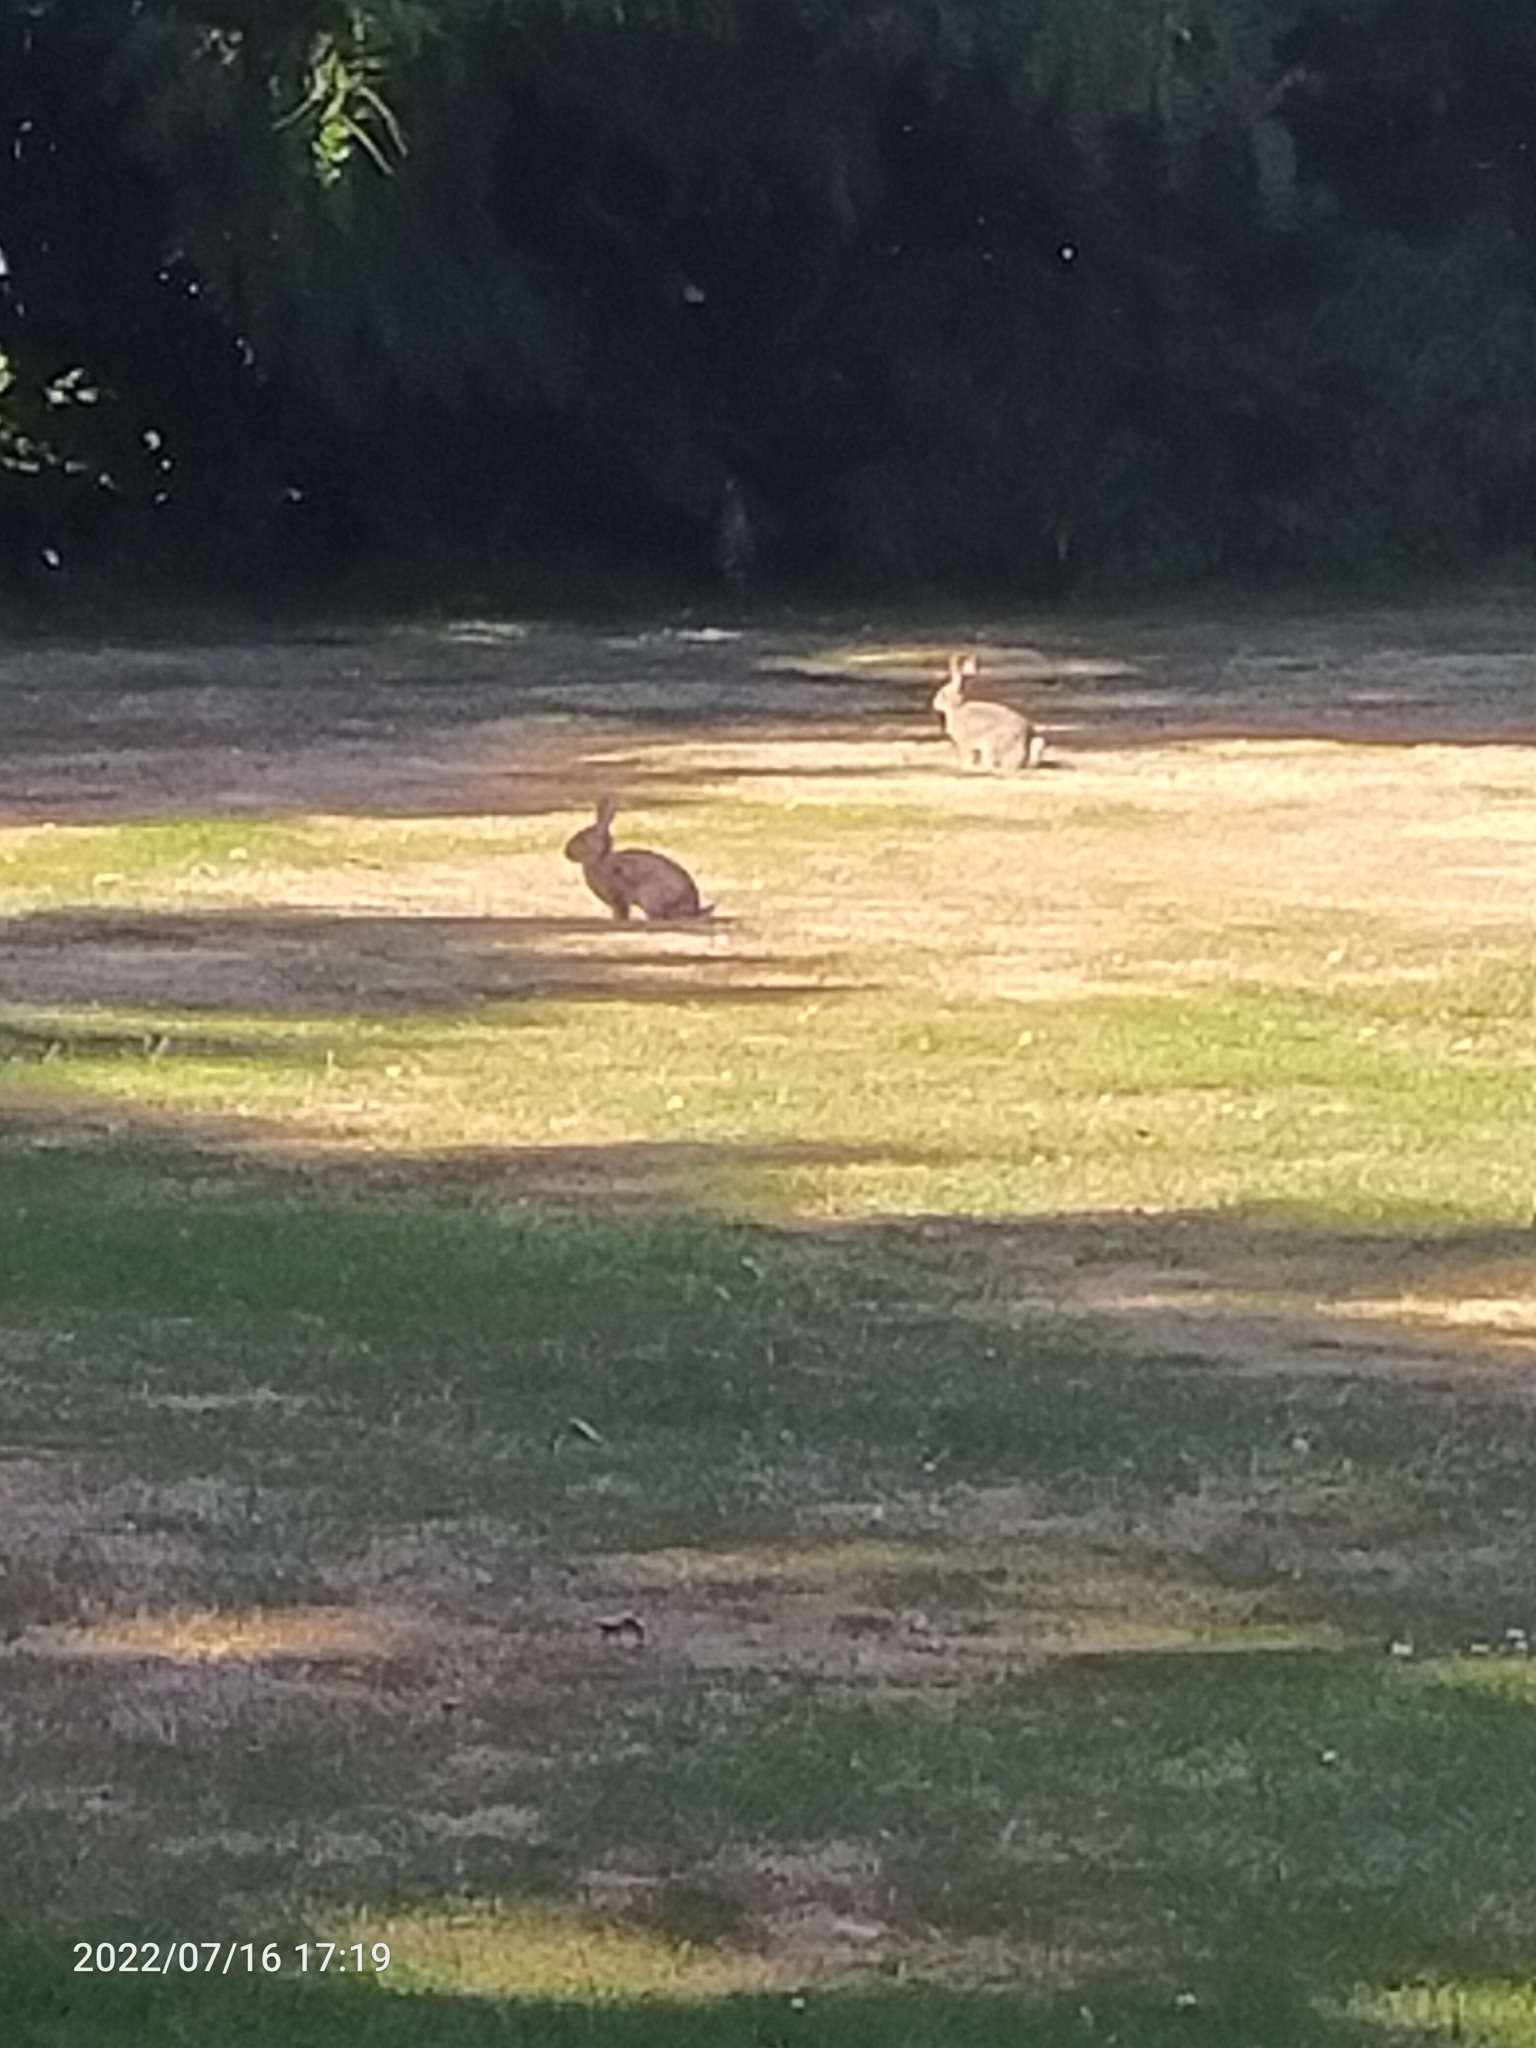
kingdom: Animalia
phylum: Chordata
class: Mammalia
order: Lagomorpha
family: Leporidae
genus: Oryctolagus
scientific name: Oryctolagus cuniculus
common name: European rabbit
